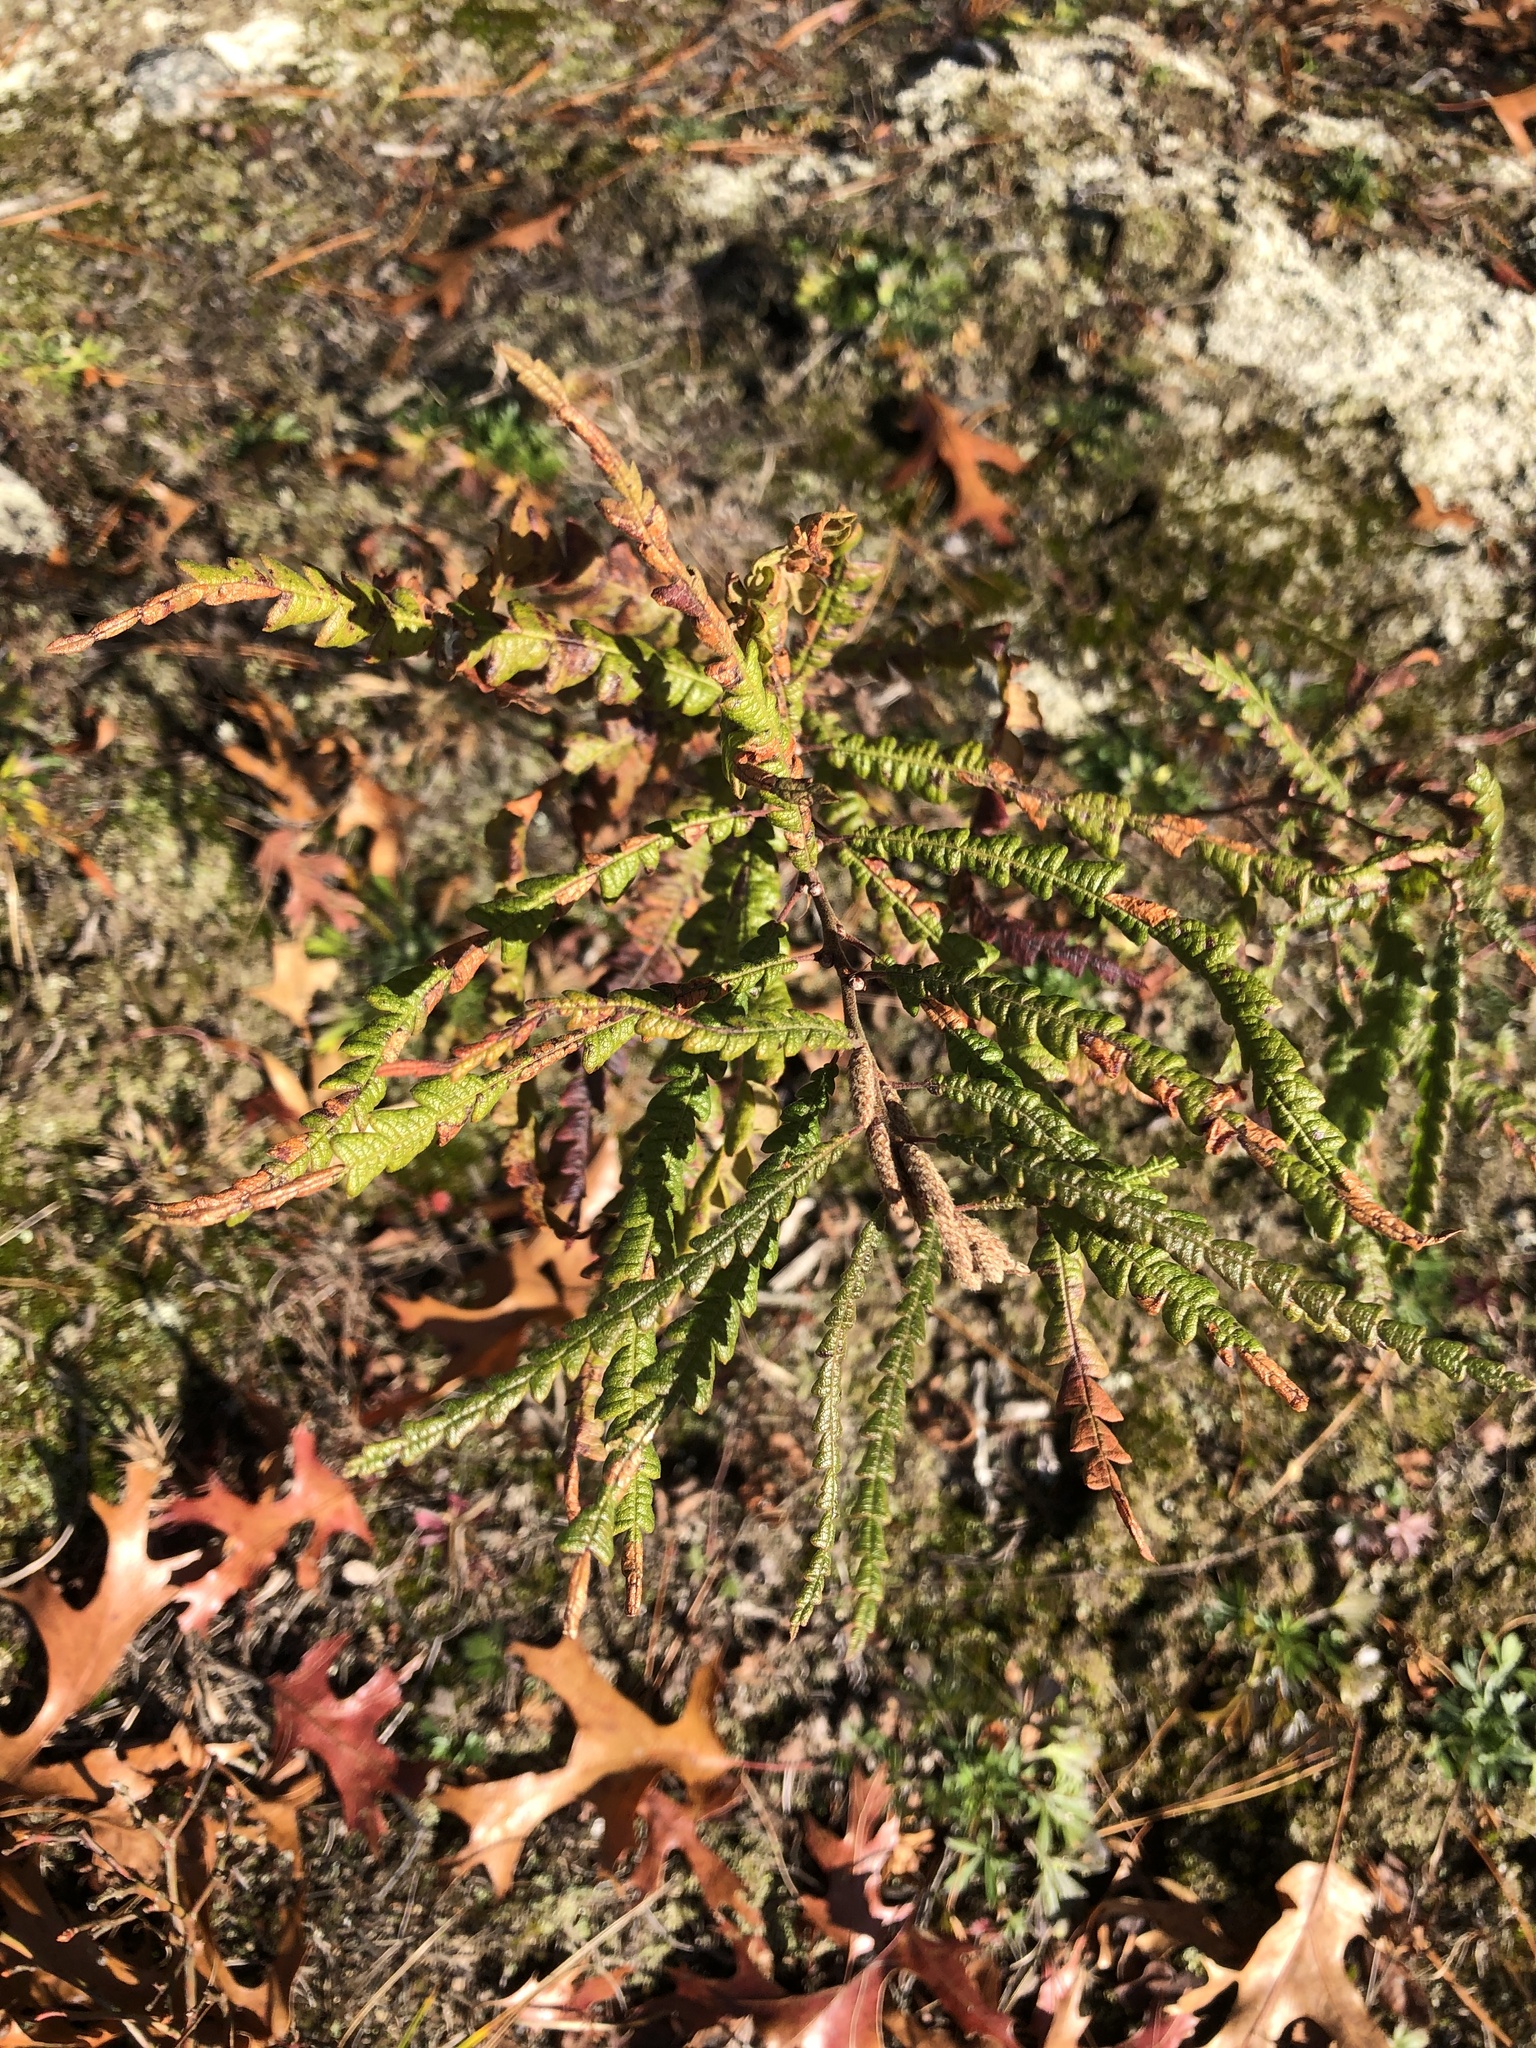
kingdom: Plantae
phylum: Tracheophyta
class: Magnoliopsida
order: Fagales
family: Myricaceae
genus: Comptonia
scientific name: Comptonia peregrina
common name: Sweet-fern
